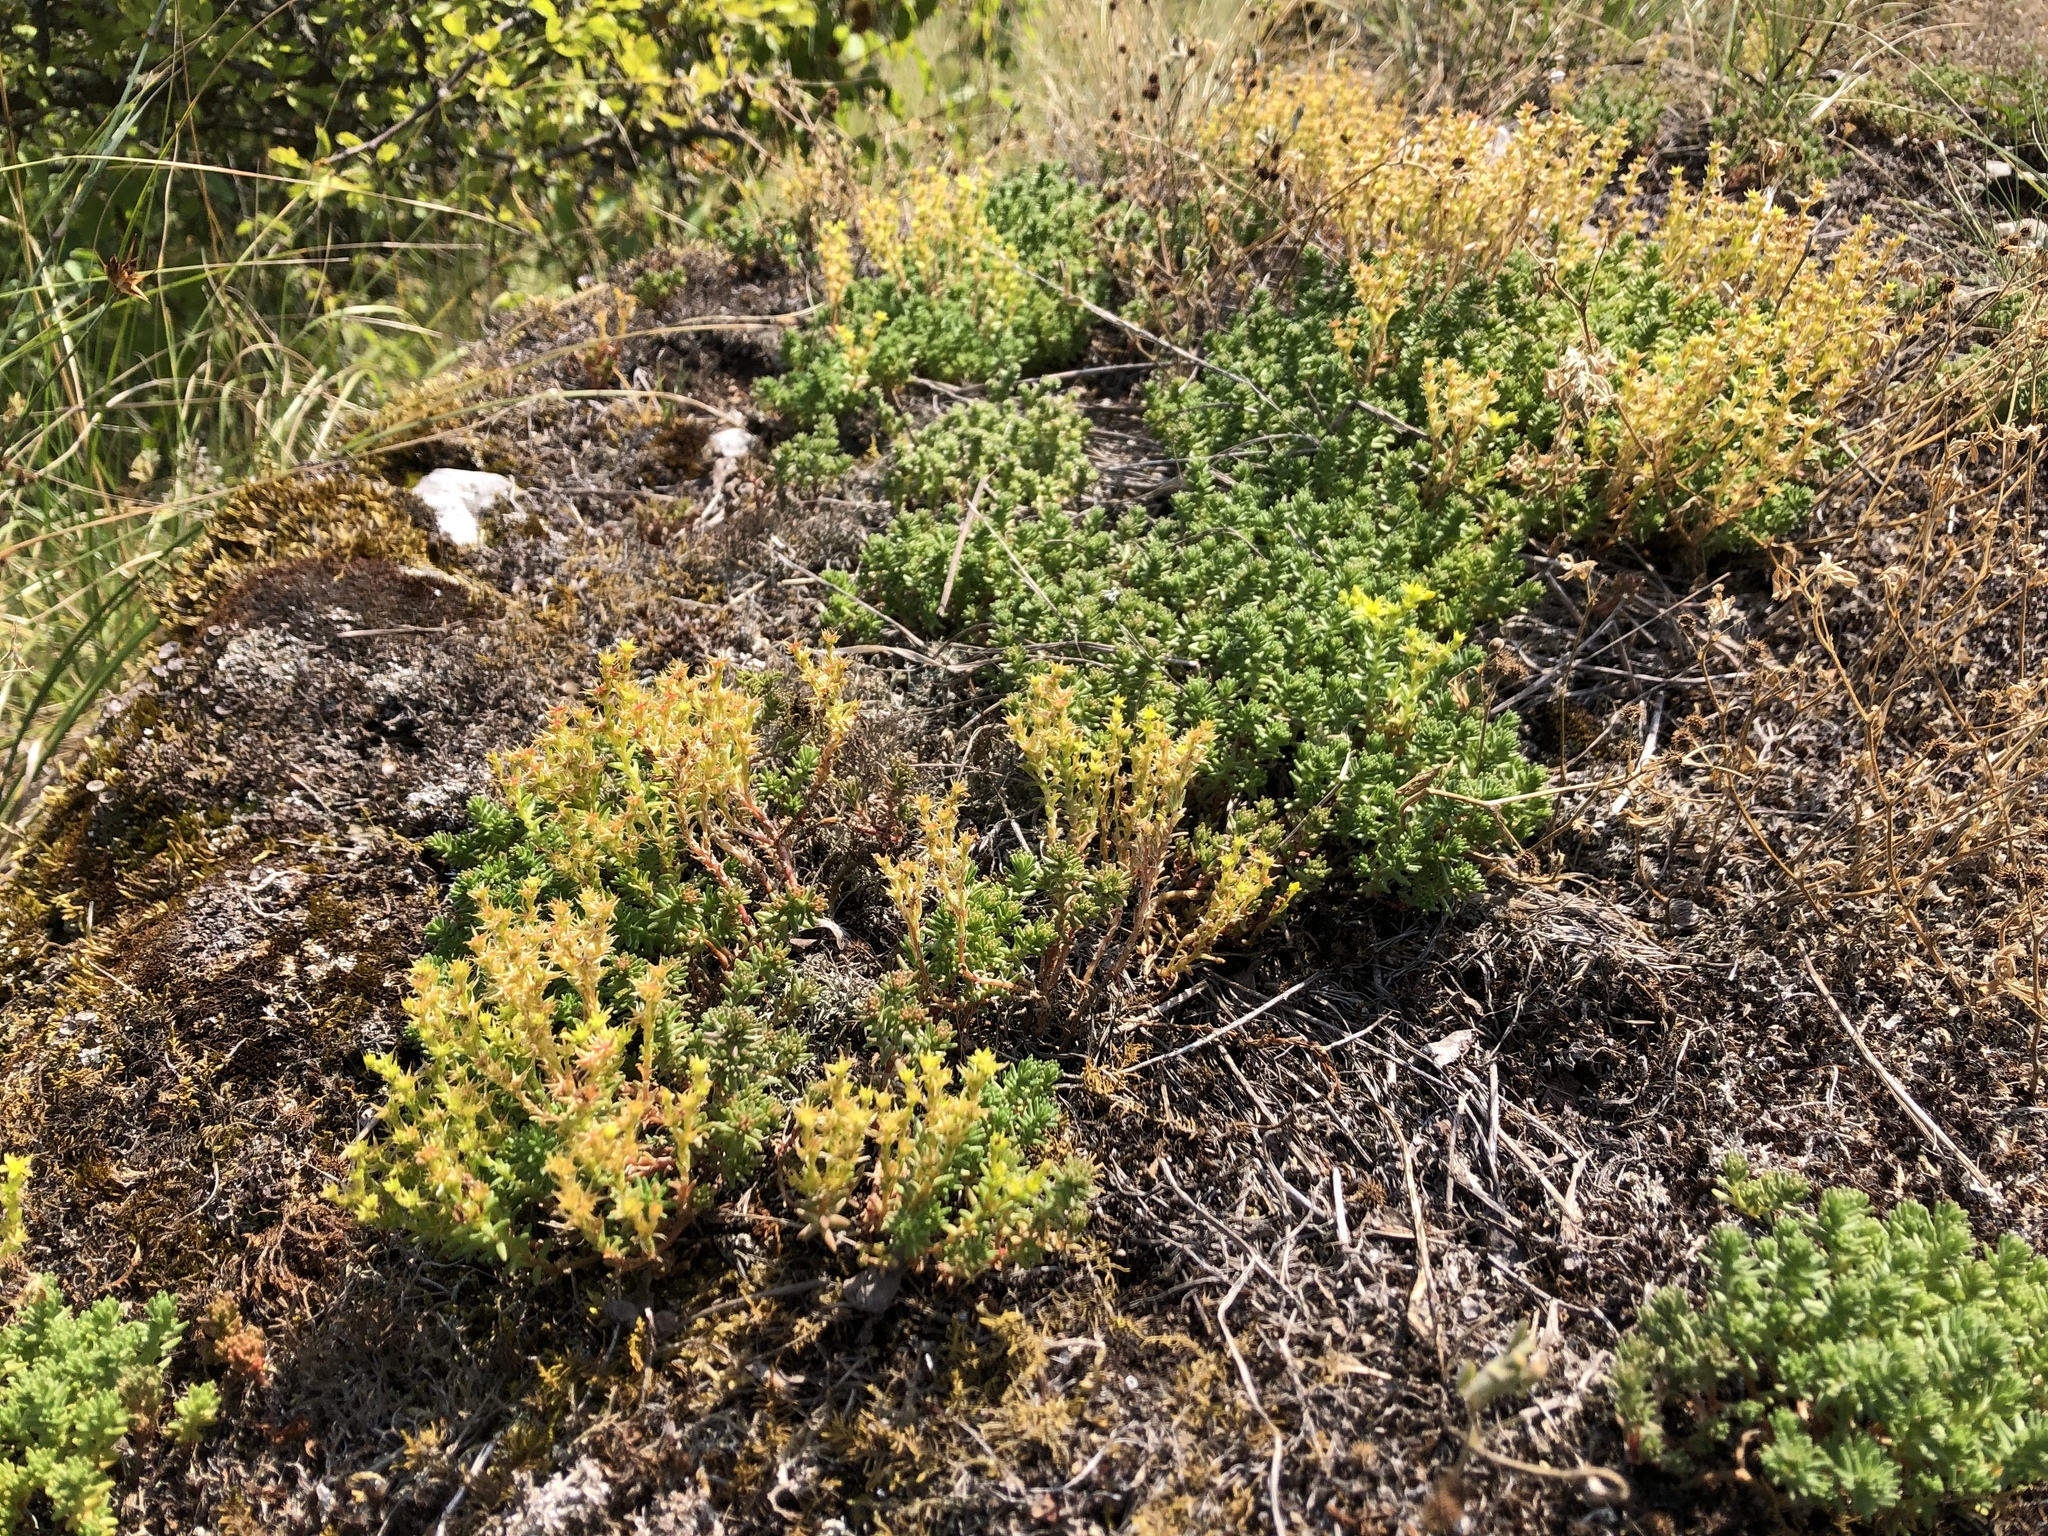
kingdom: Plantae
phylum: Tracheophyta
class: Magnoliopsida
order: Saxifragales
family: Crassulaceae
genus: Sedum
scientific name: Sedum sexangulare
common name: Tasteless stonecrop
